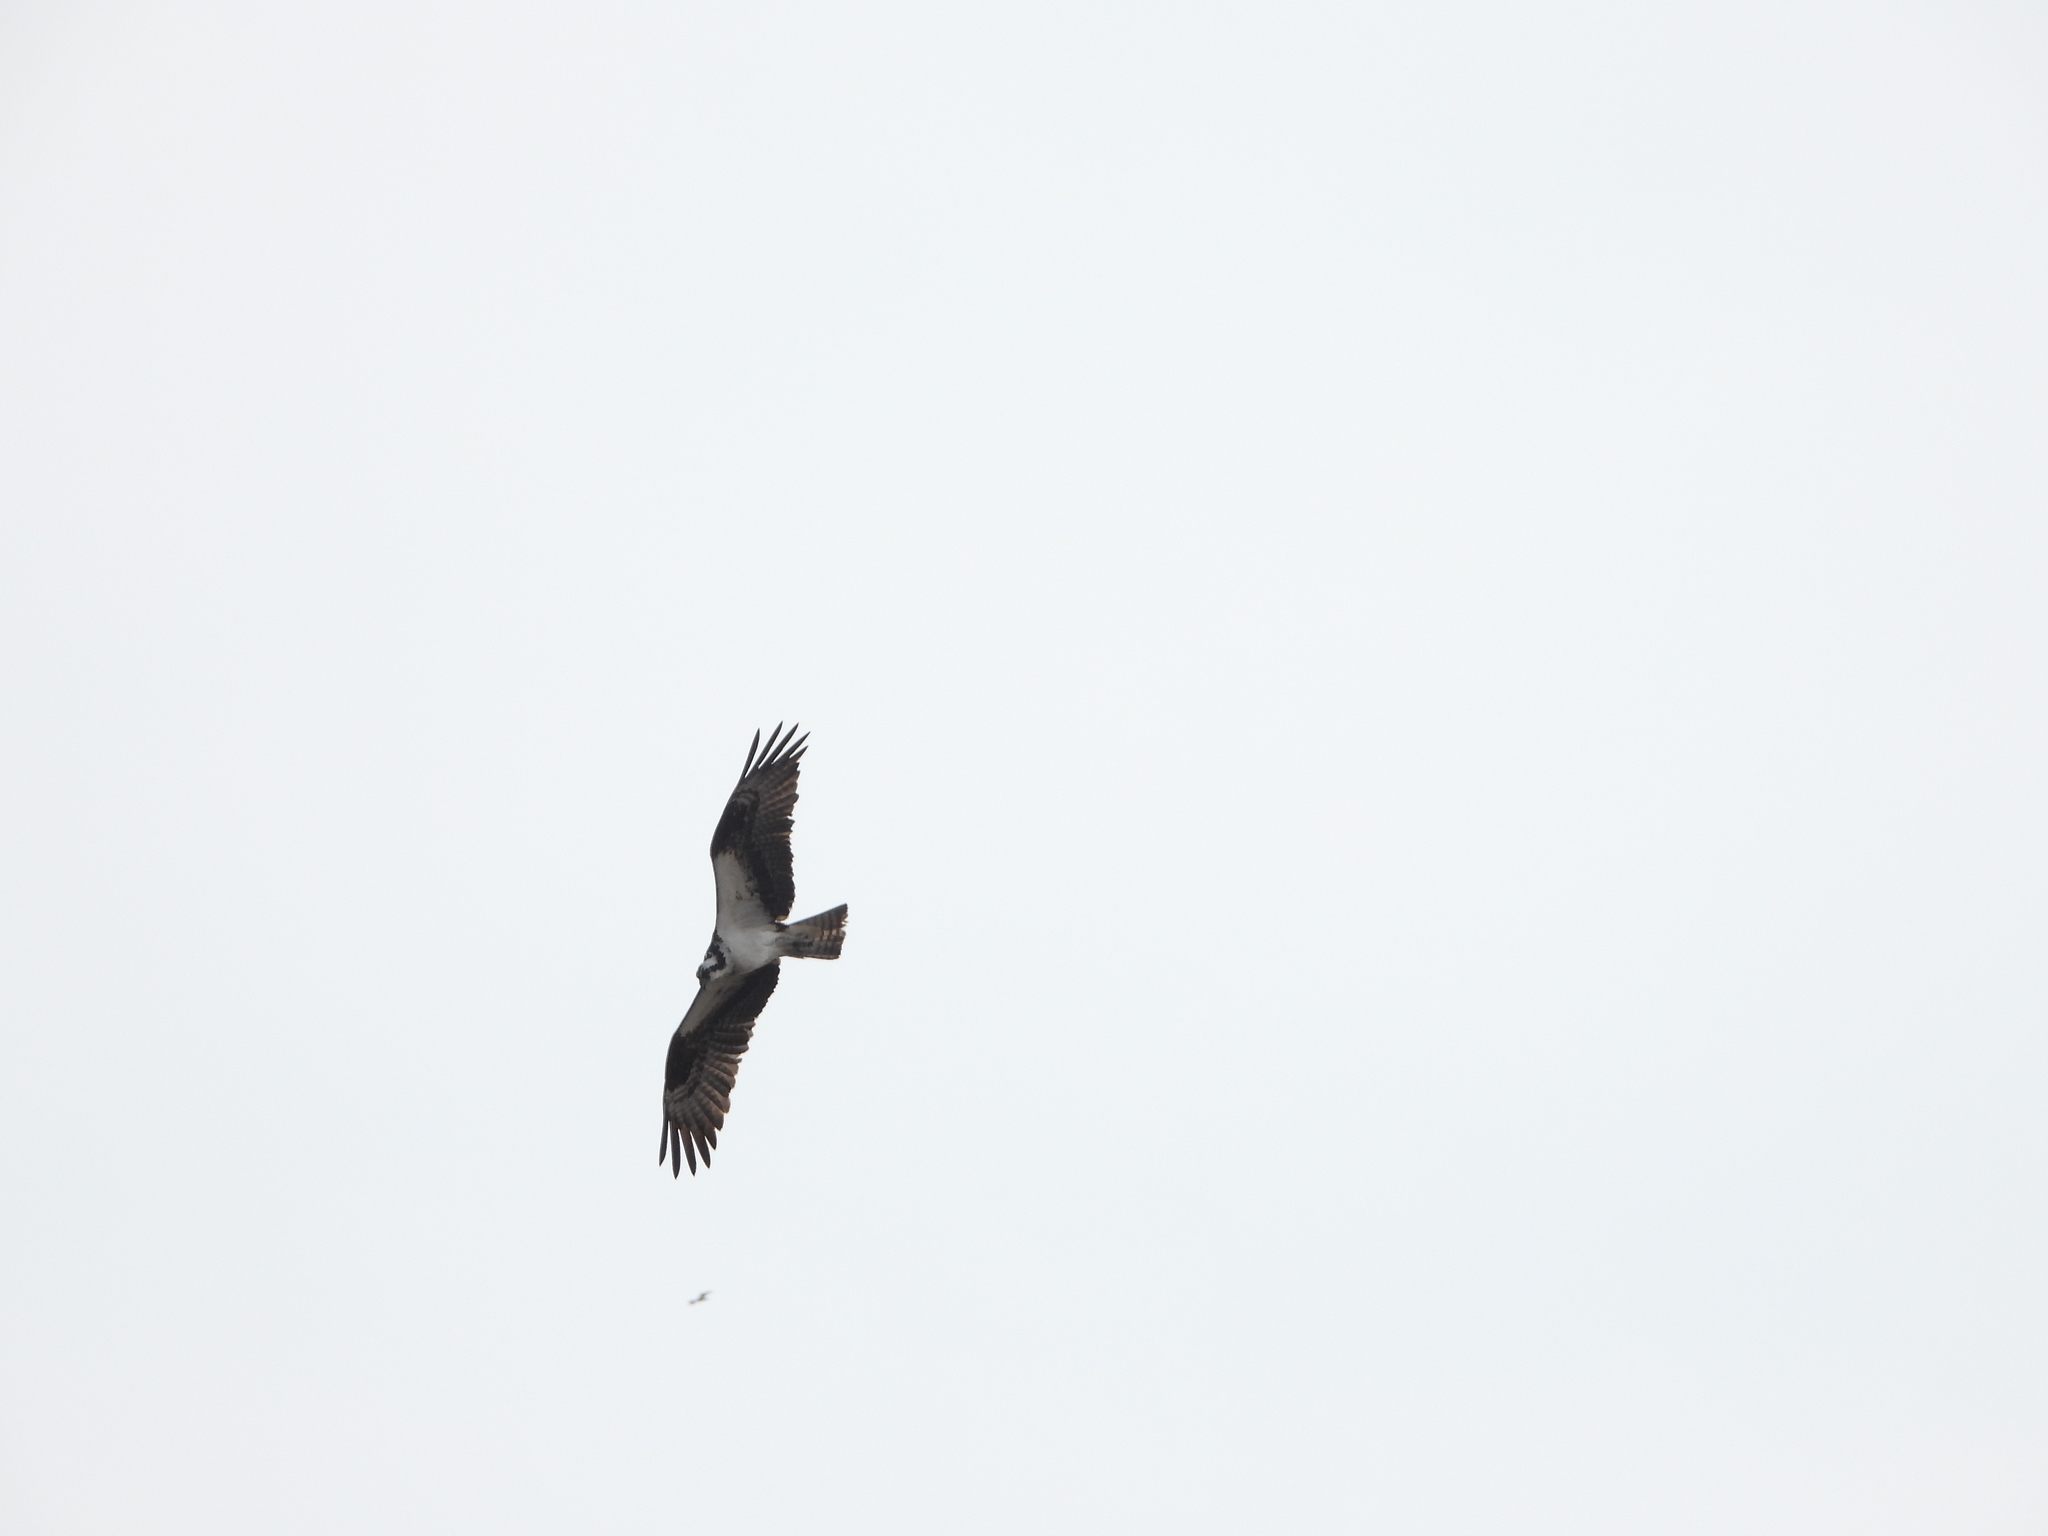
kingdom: Animalia
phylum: Chordata
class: Aves
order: Accipitriformes
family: Pandionidae
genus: Pandion
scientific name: Pandion haliaetus
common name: Osprey
